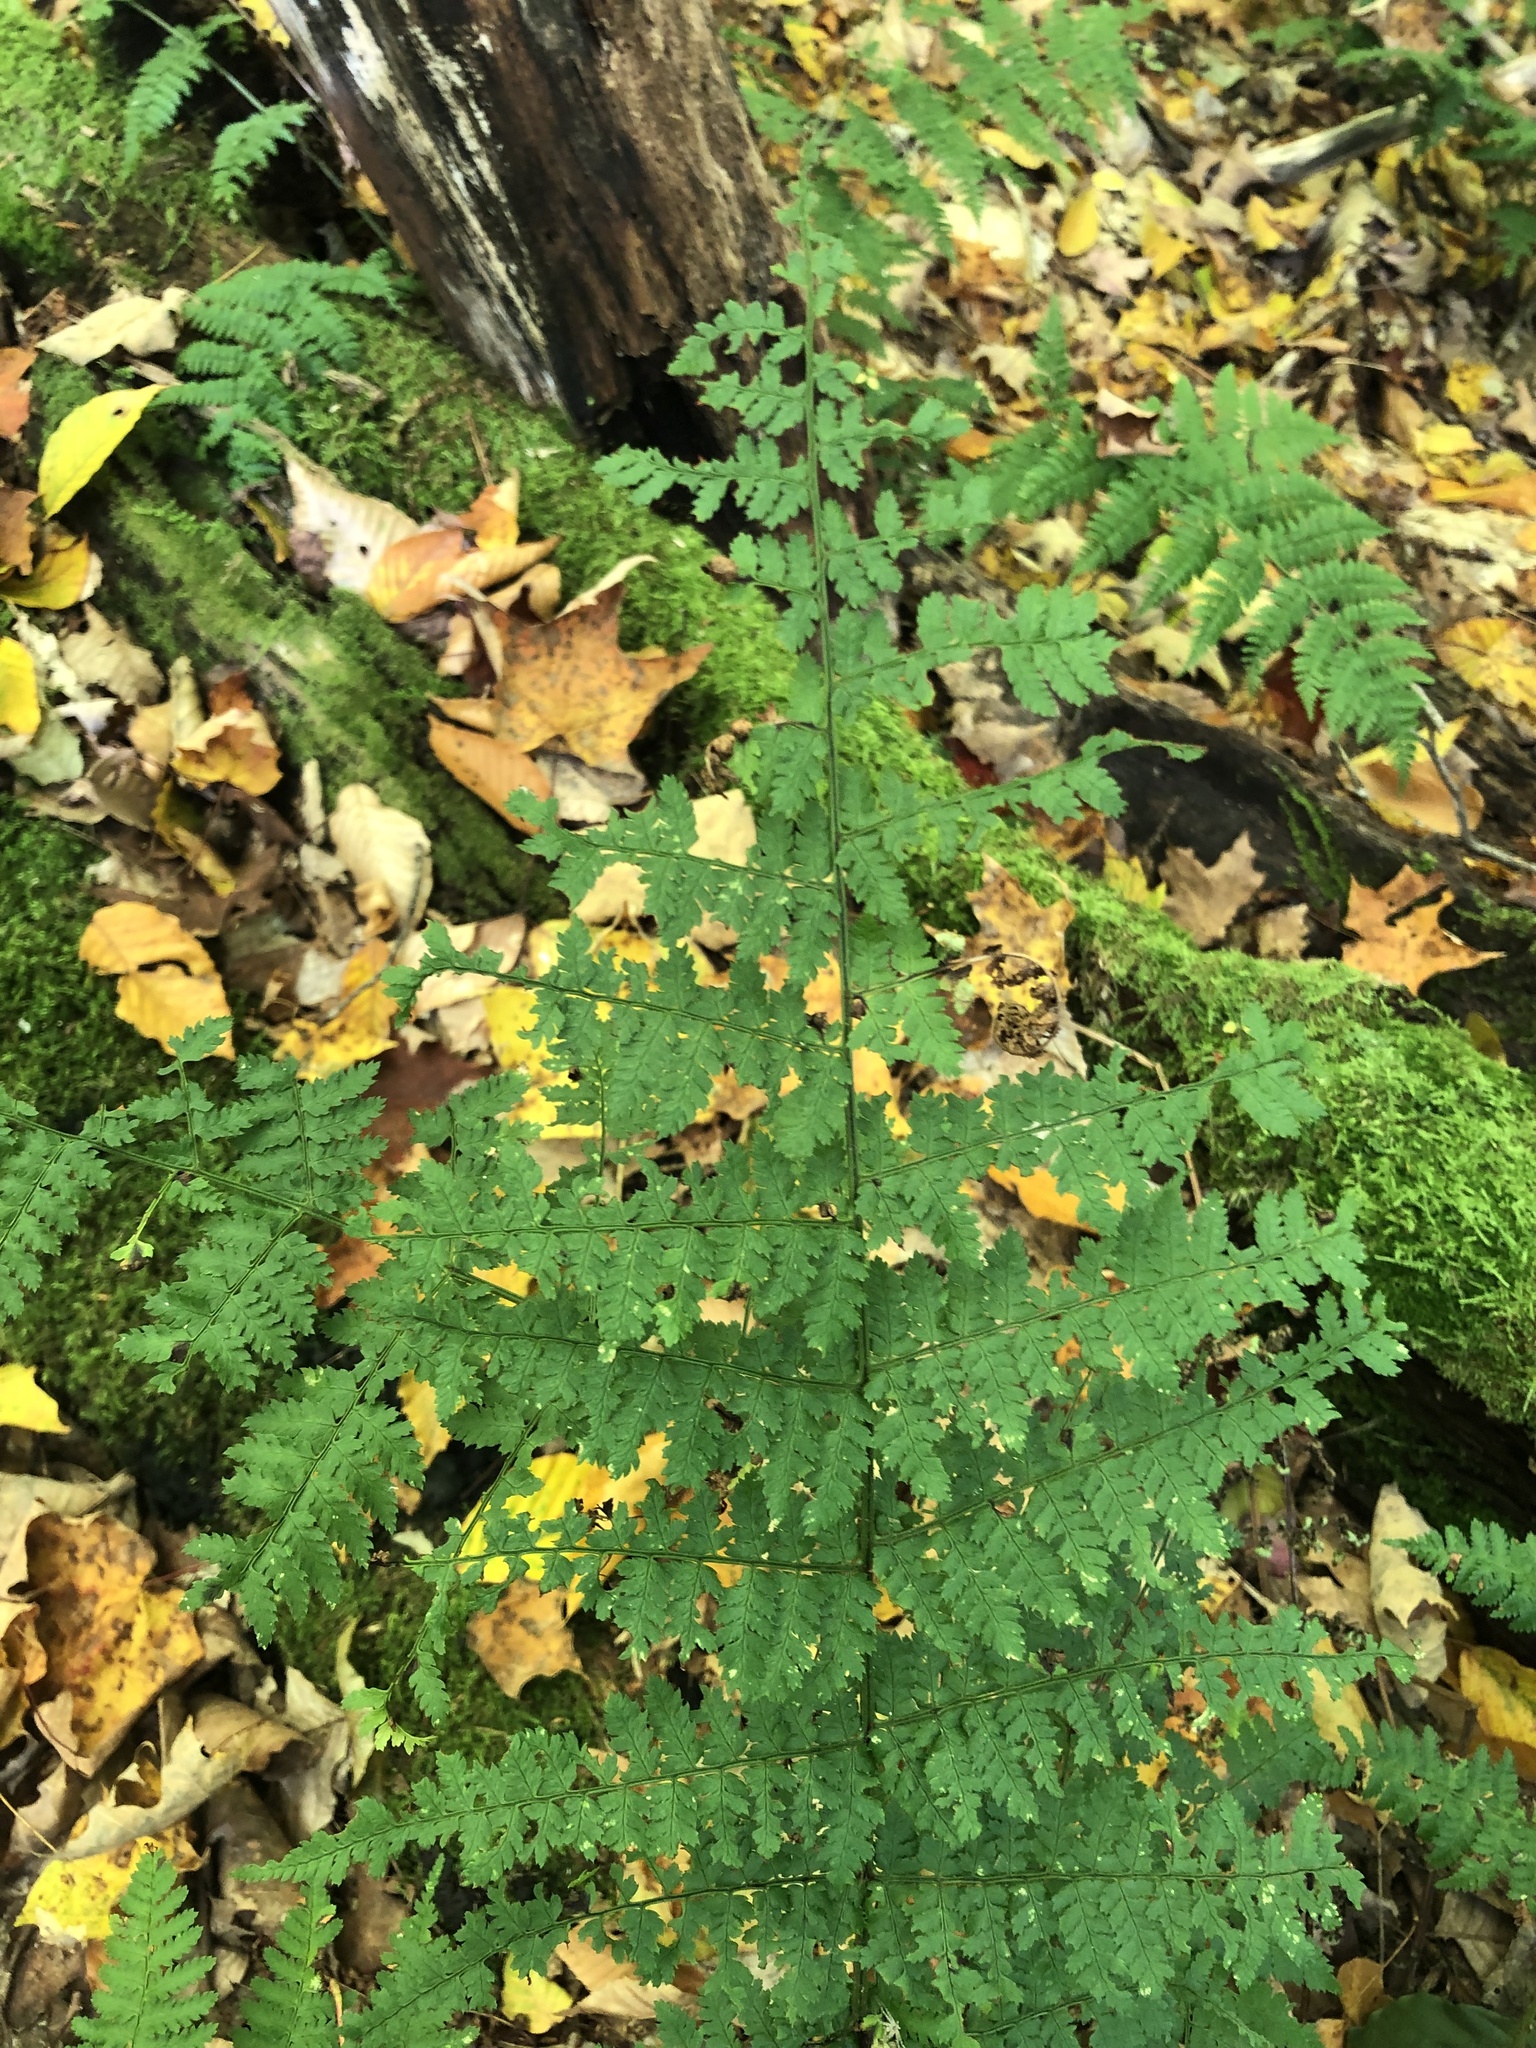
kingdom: Plantae
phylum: Tracheophyta
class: Polypodiopsida
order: Polypodiales
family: Dryopteridaceae
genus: Dryopteris
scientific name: Dryopteris intermedia
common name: Evergreen wood fern
